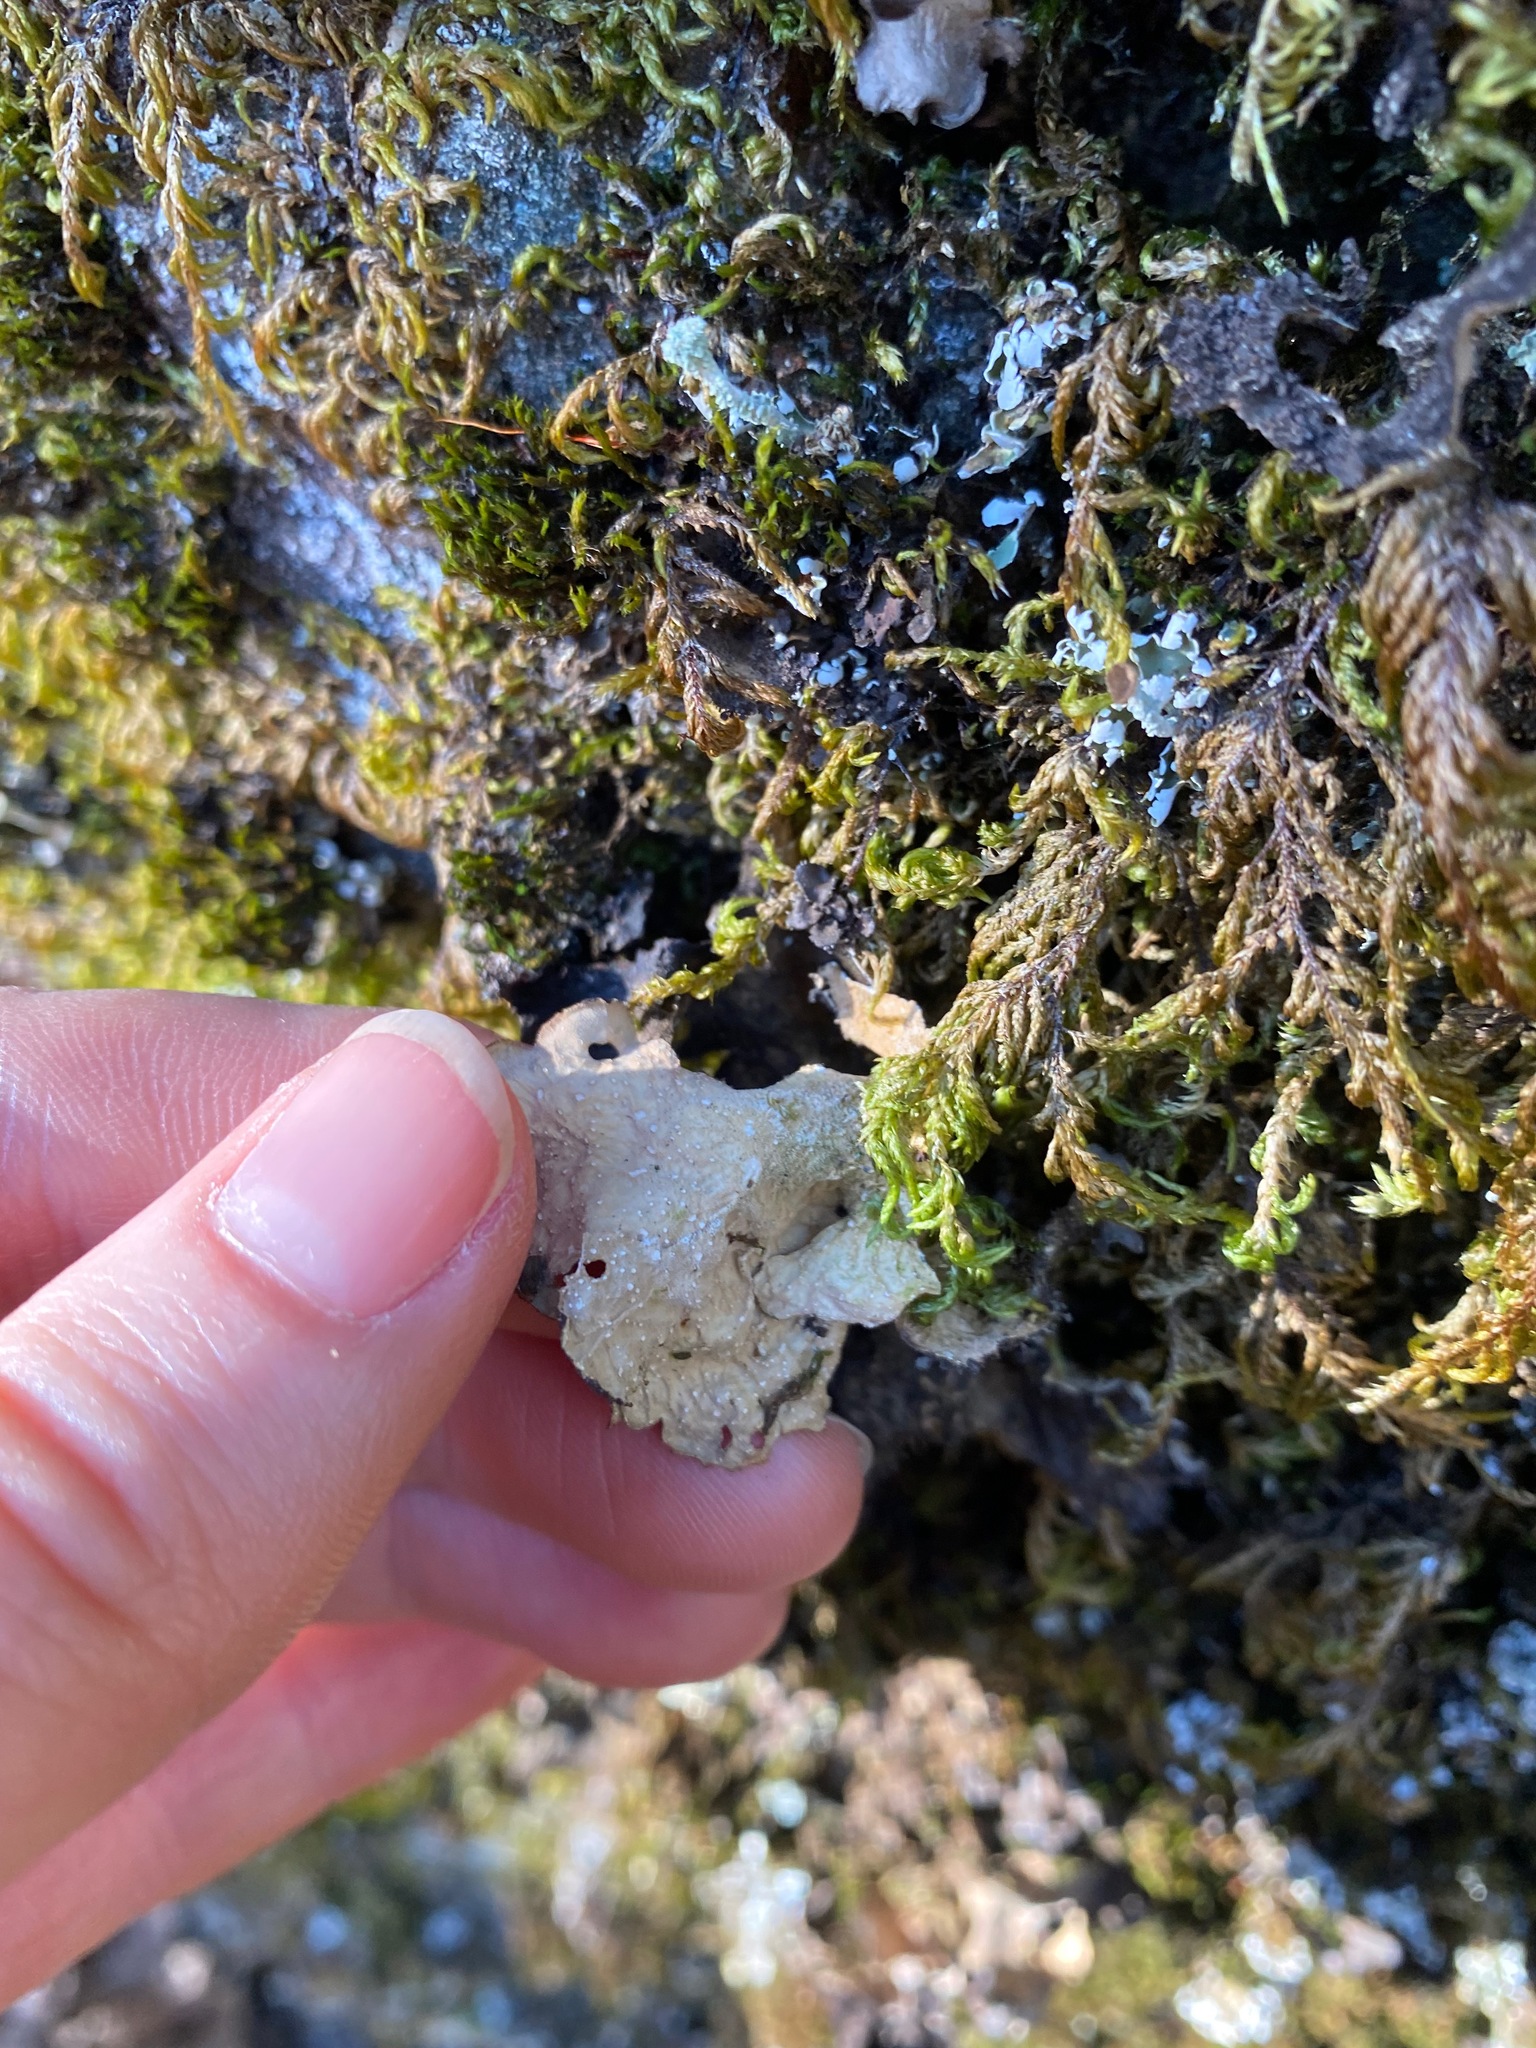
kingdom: Fungi
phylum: Ascomycota
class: Lecanoromycetes
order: Peltigerales
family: Lobariaceae
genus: Sticta
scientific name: Sticta fuliginosa
